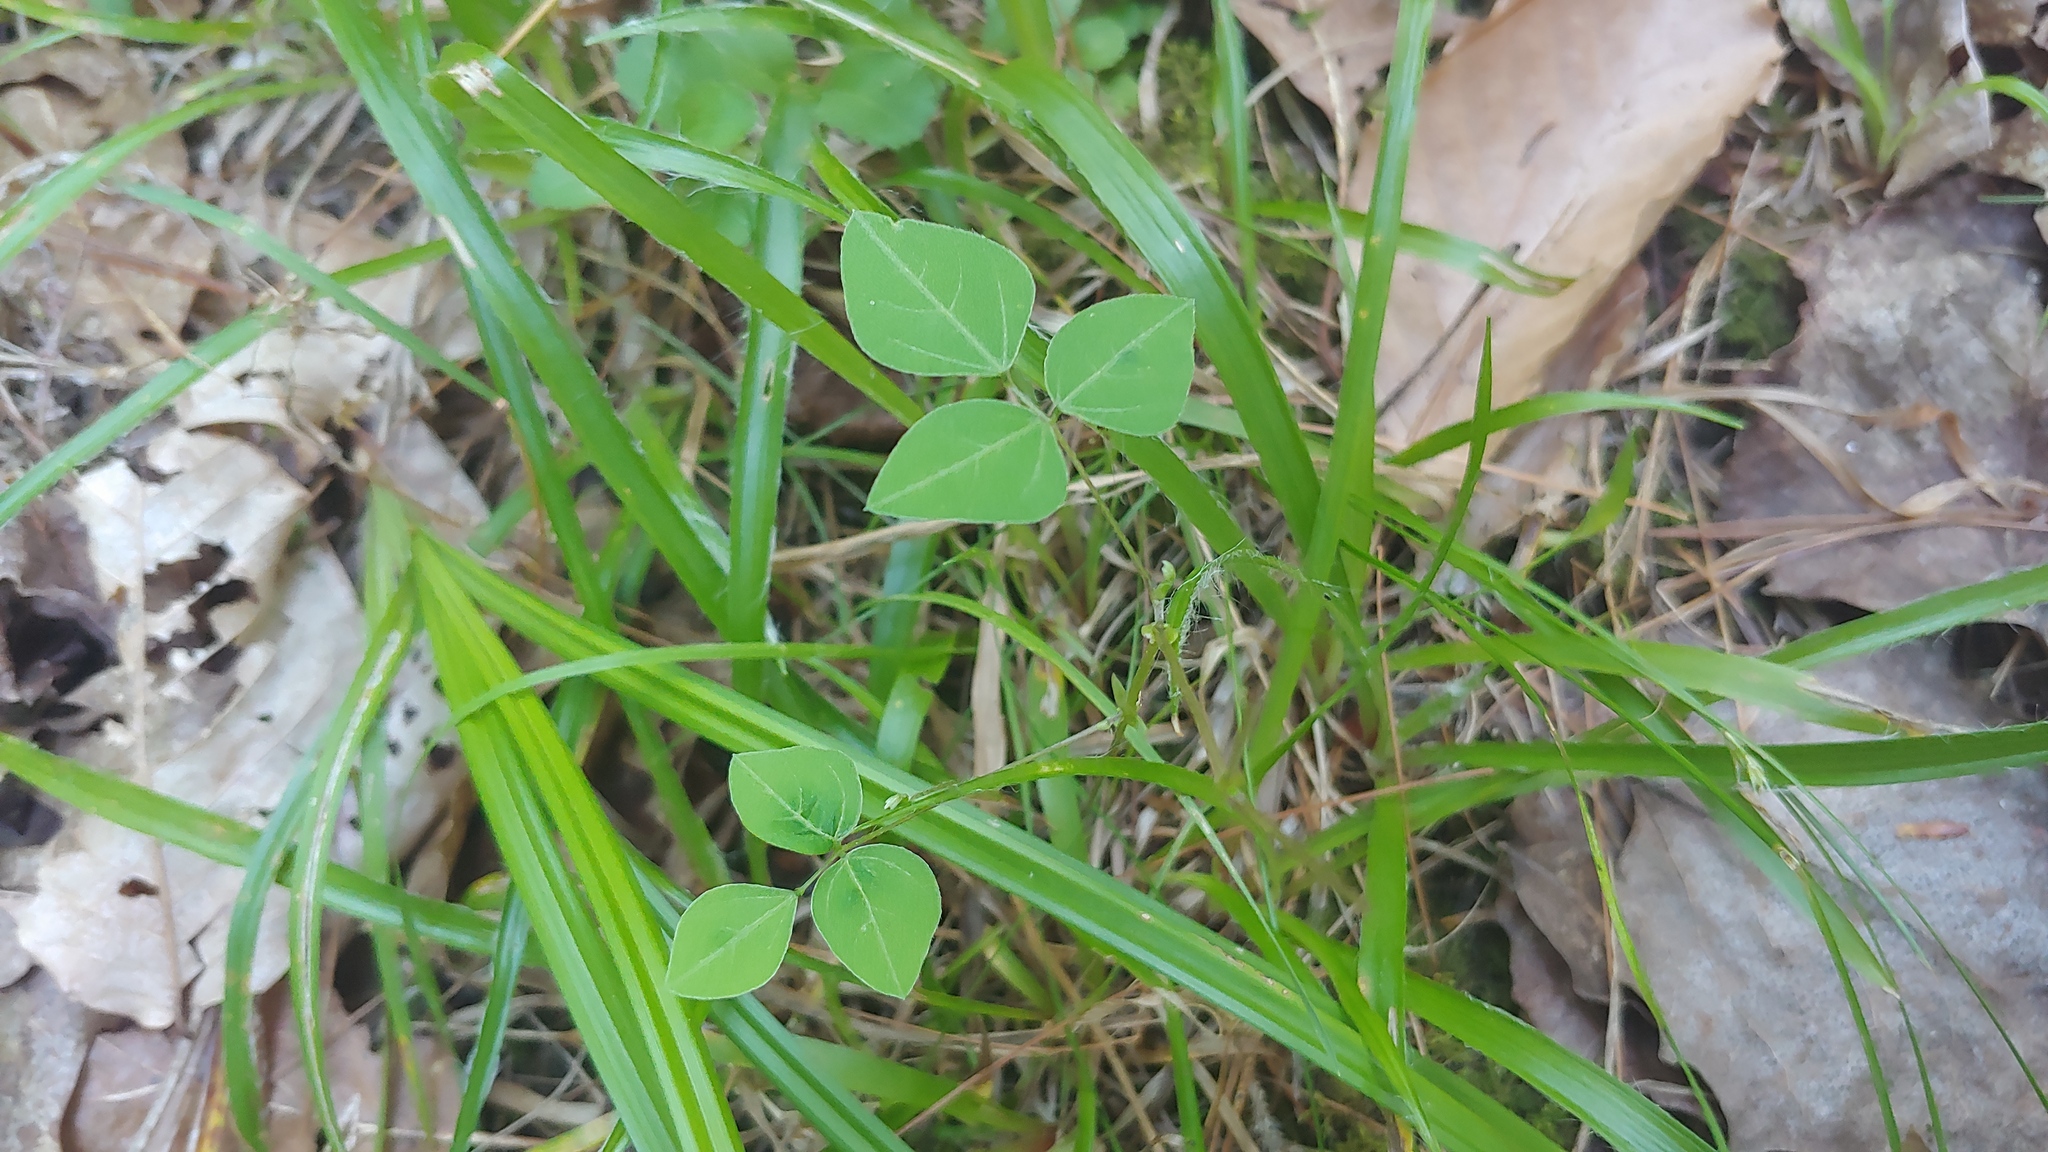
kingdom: Plantae
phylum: Tracheophyta
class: Magnoliopsida
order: Fabales
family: Fabaceae
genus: Amphicarpaea
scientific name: Amphicarpaea bracteata
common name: American hog peanut
